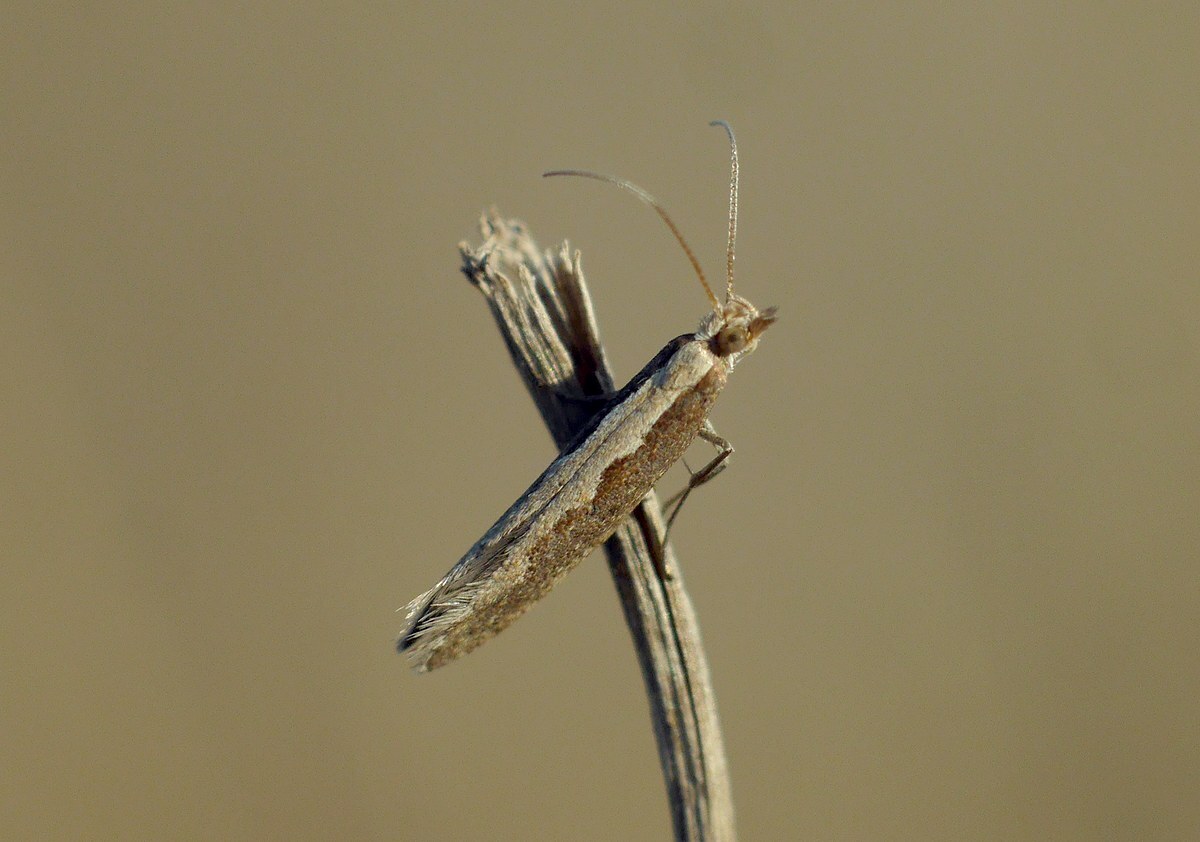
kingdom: Animalia
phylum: Arthropoda
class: Insecta
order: Lepidoptera
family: Plutellidae
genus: Plutella
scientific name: Plutella xylostella
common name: Diamond-back moth
